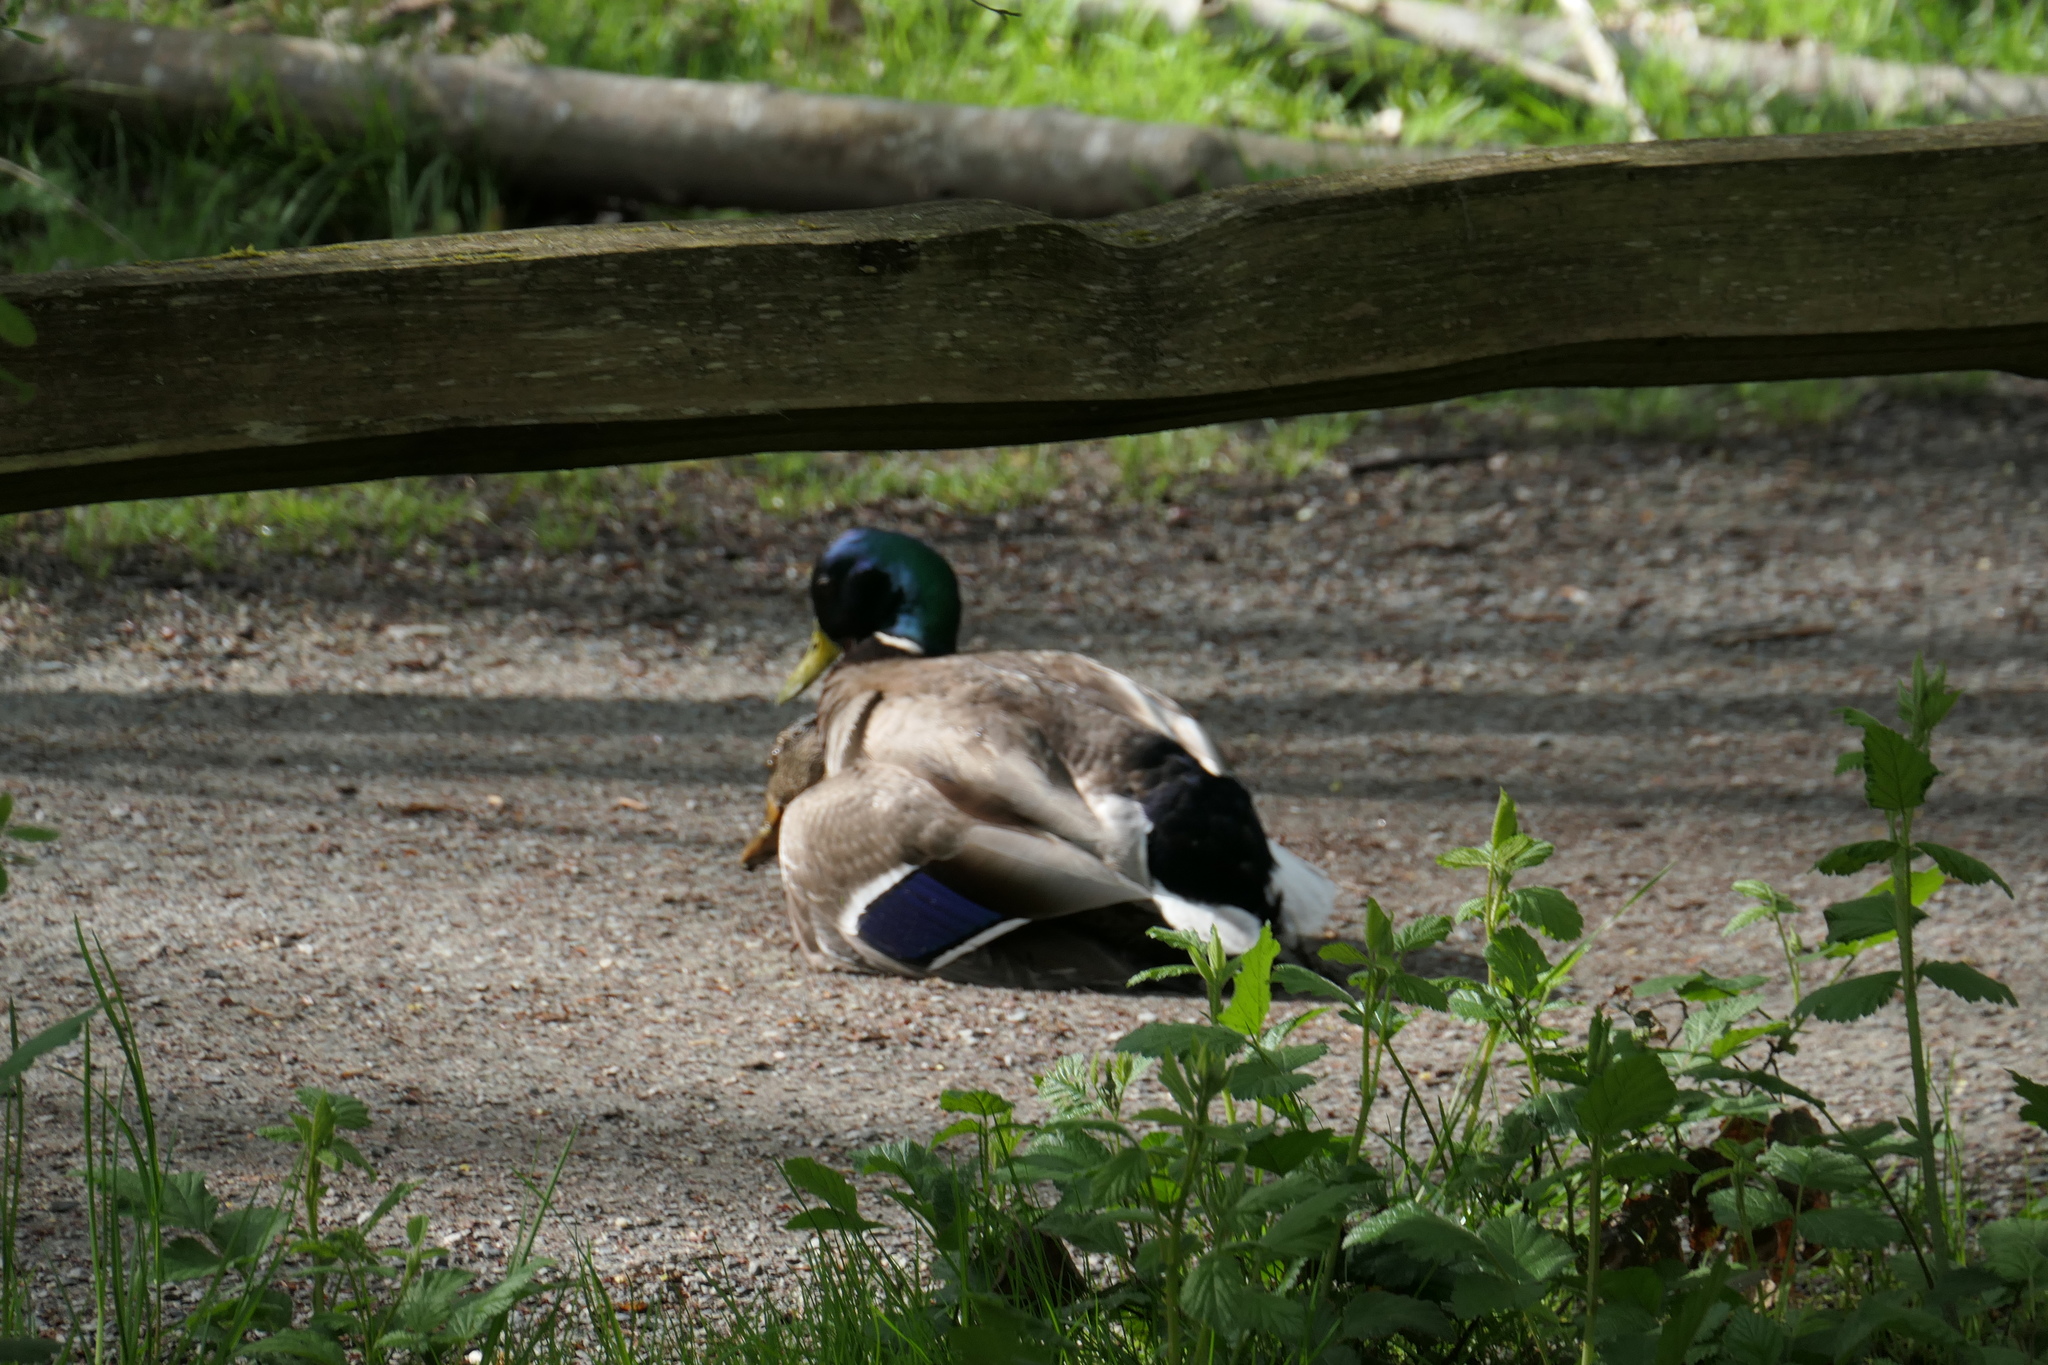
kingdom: Animalia
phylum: Chordata
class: Aves
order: Anseriformes
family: Anatidae
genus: Anas
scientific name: Anas platyrhynchos
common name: Mallard
